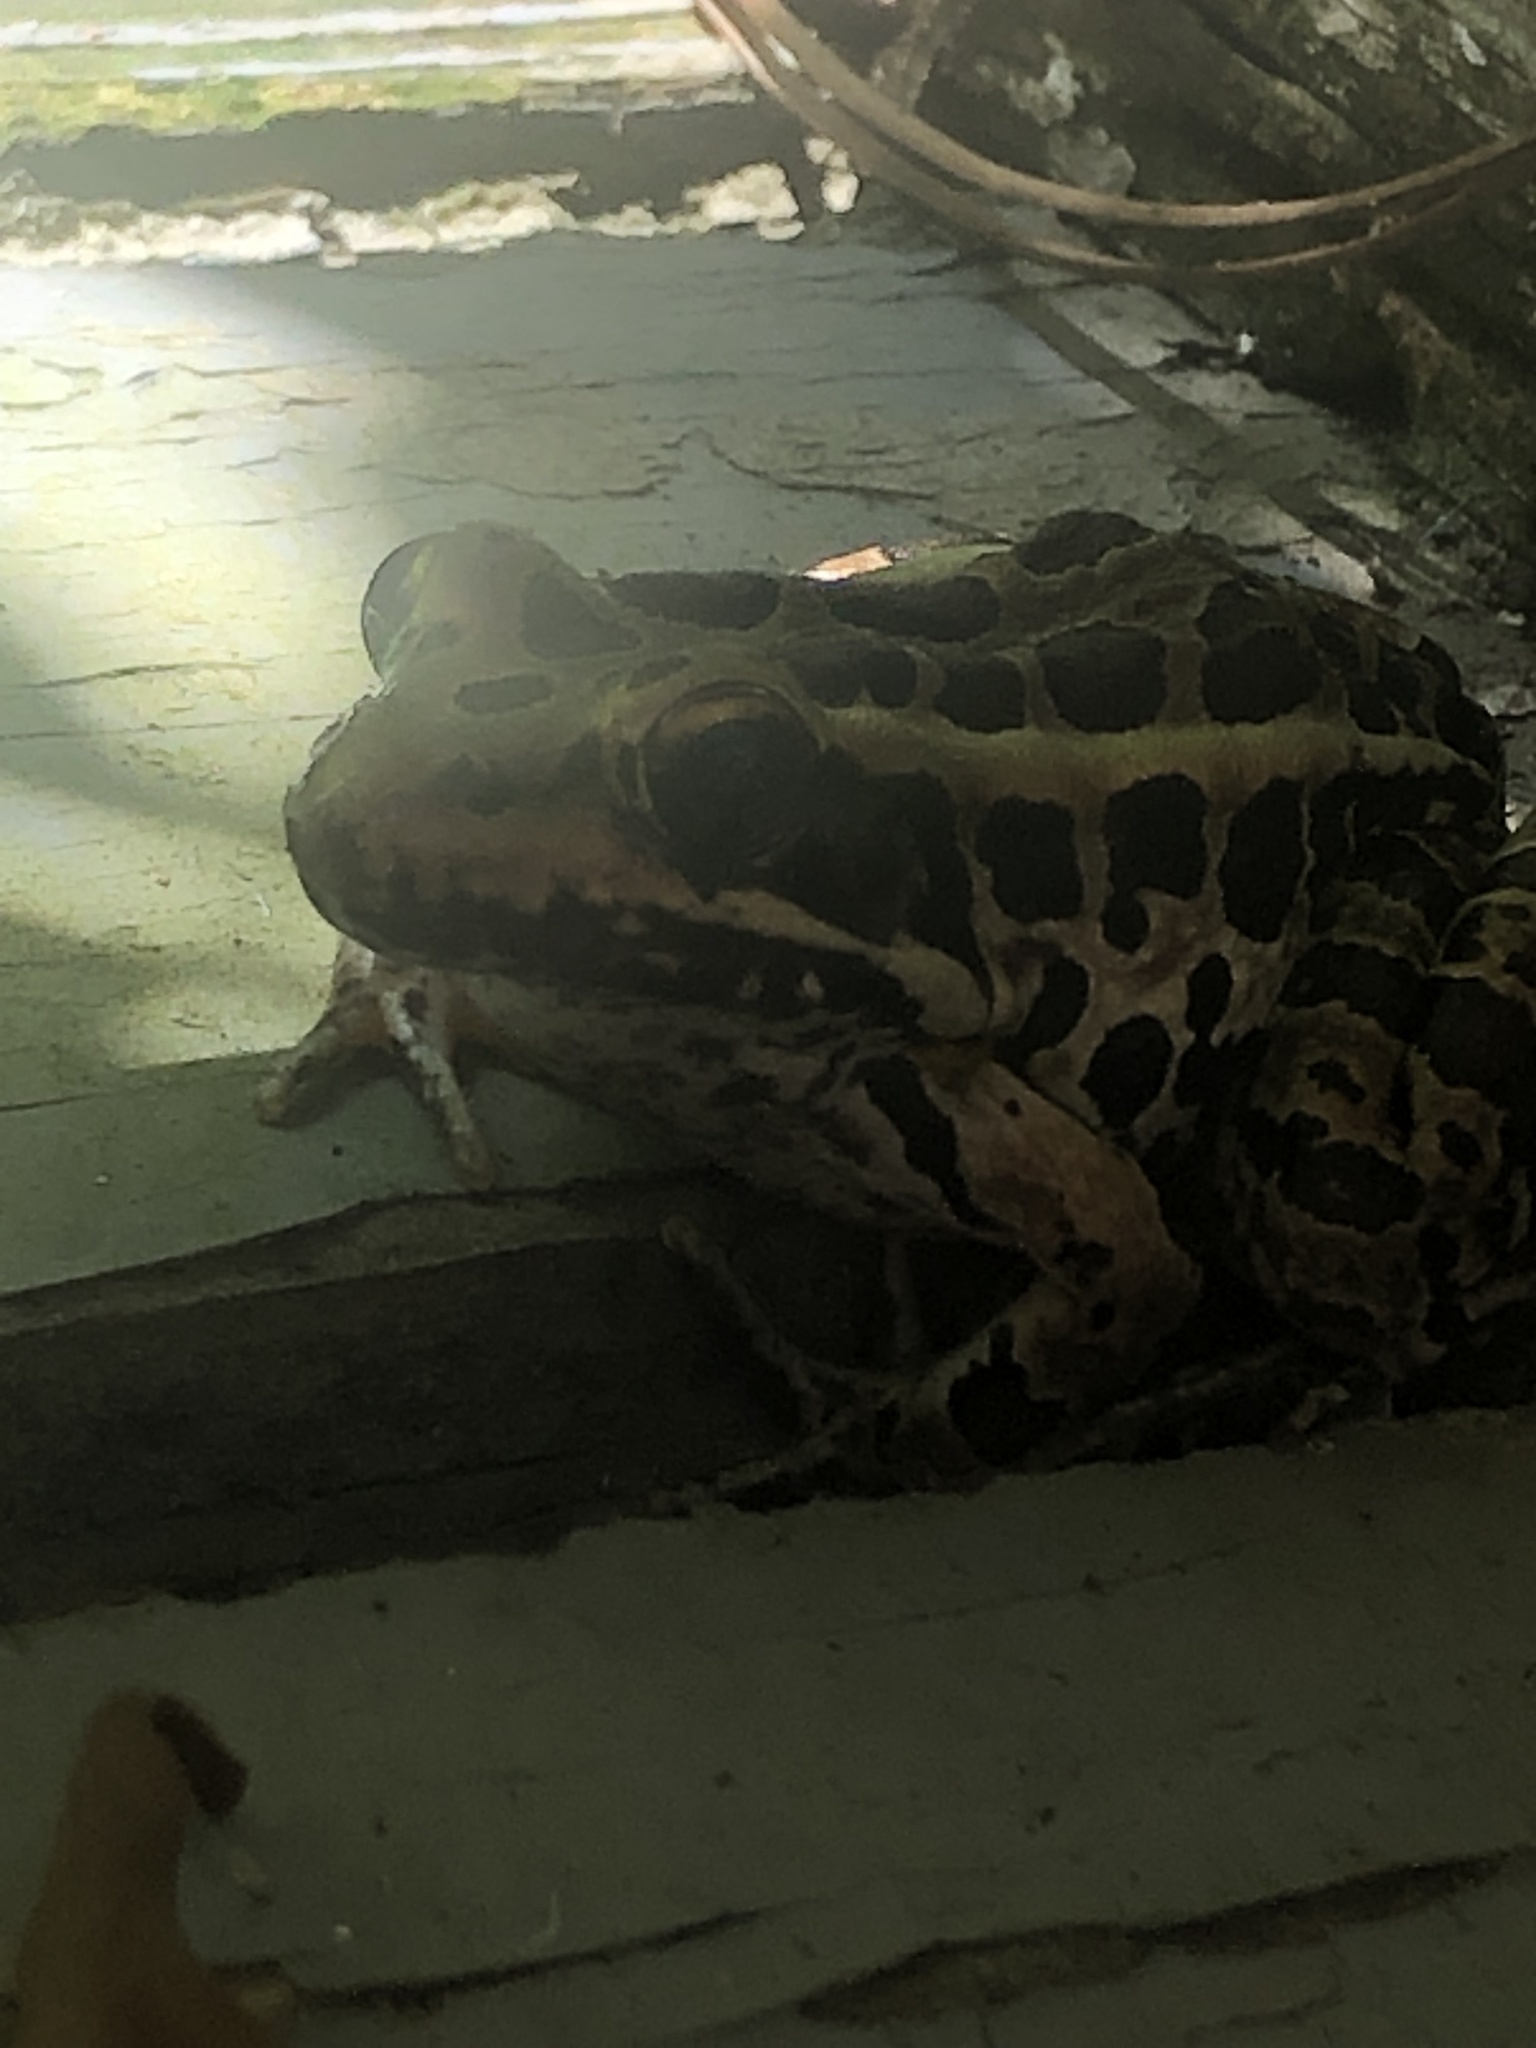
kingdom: Animalia
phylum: Chordata
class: Amphibia
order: Anura
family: Ranidae
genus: Lithobates
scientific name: Lithobates palustris
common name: Pickerel frog
